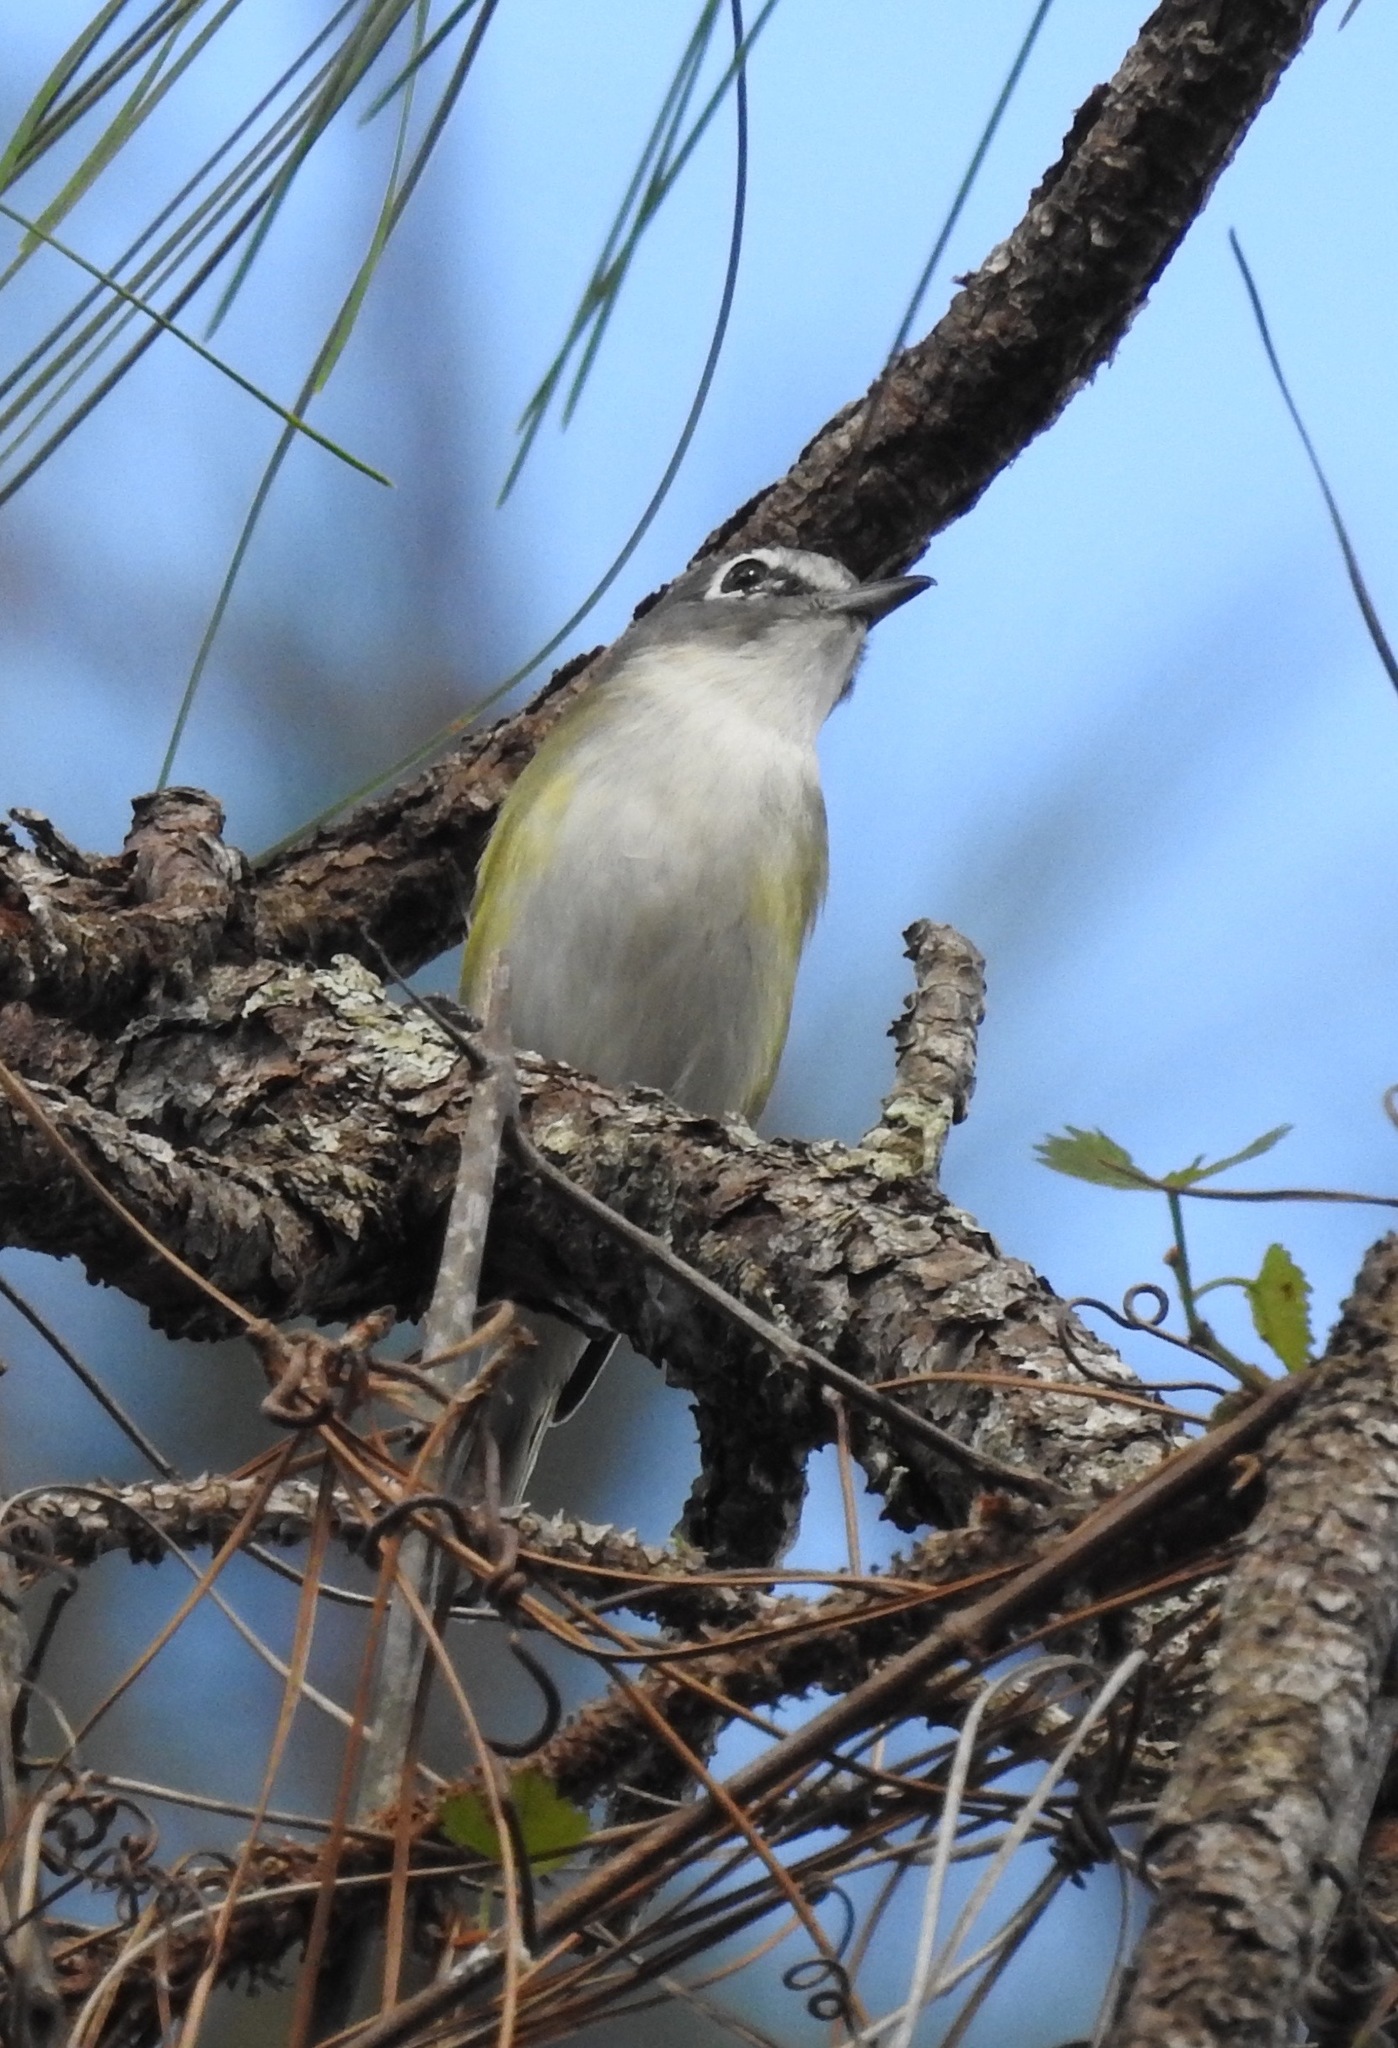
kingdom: Animalia
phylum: Chordata
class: Aves
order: Passeriformes
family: Vireonidae
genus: Vireo
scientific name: Vireo solitarius
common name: Blue-headed vireo
